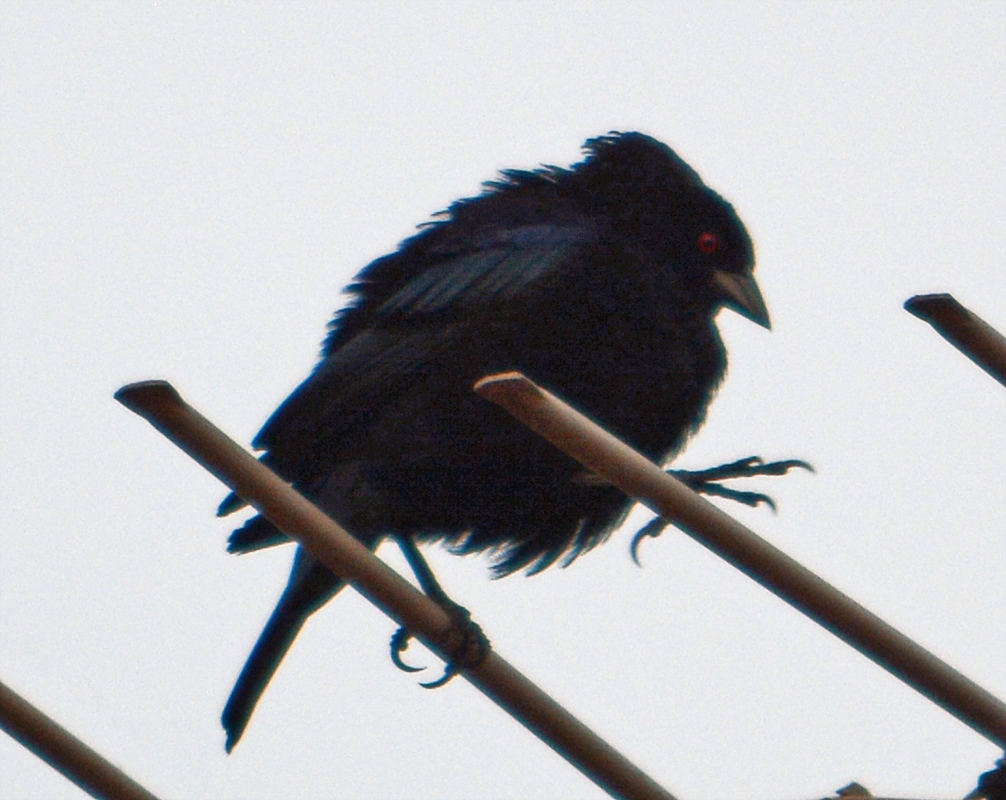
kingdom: Animalia
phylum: Chordata
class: Aves
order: Passeriformes
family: Icteridae
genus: Molothrus
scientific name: Molothrus aeneus
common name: Bronzed cowbird
